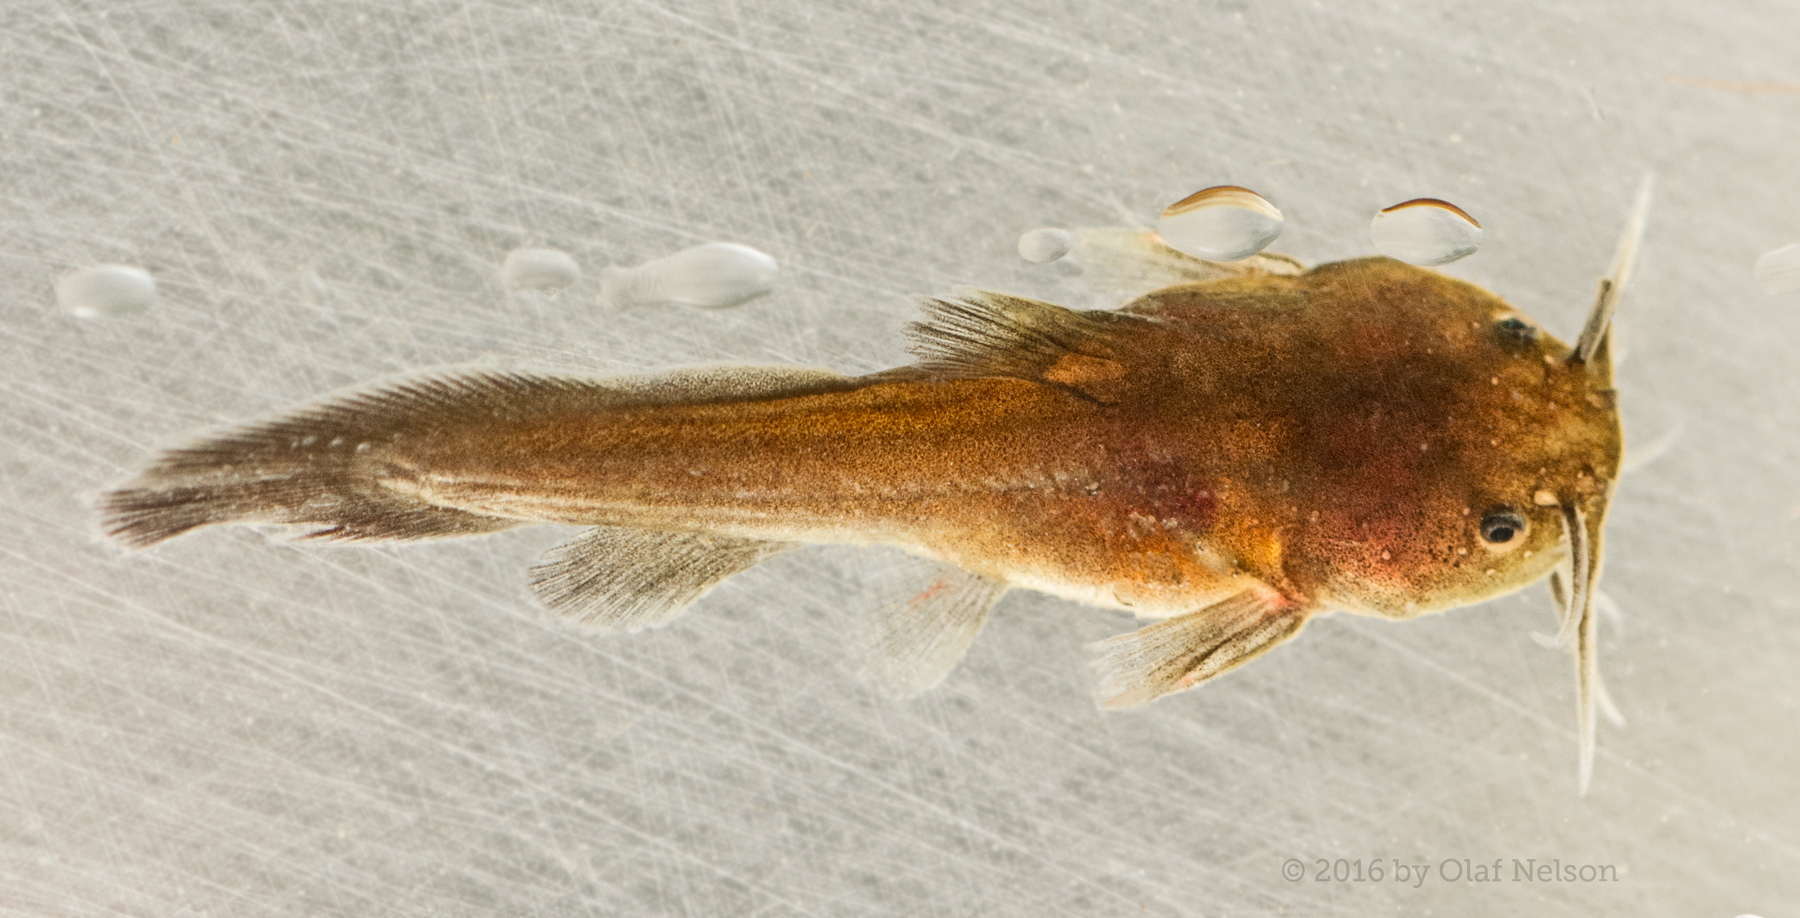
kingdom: Animalia
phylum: Chordata
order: Siluriformes
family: Ictaluridae
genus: Noturus
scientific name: Noturus gyrinus
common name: Tadpole madtom
